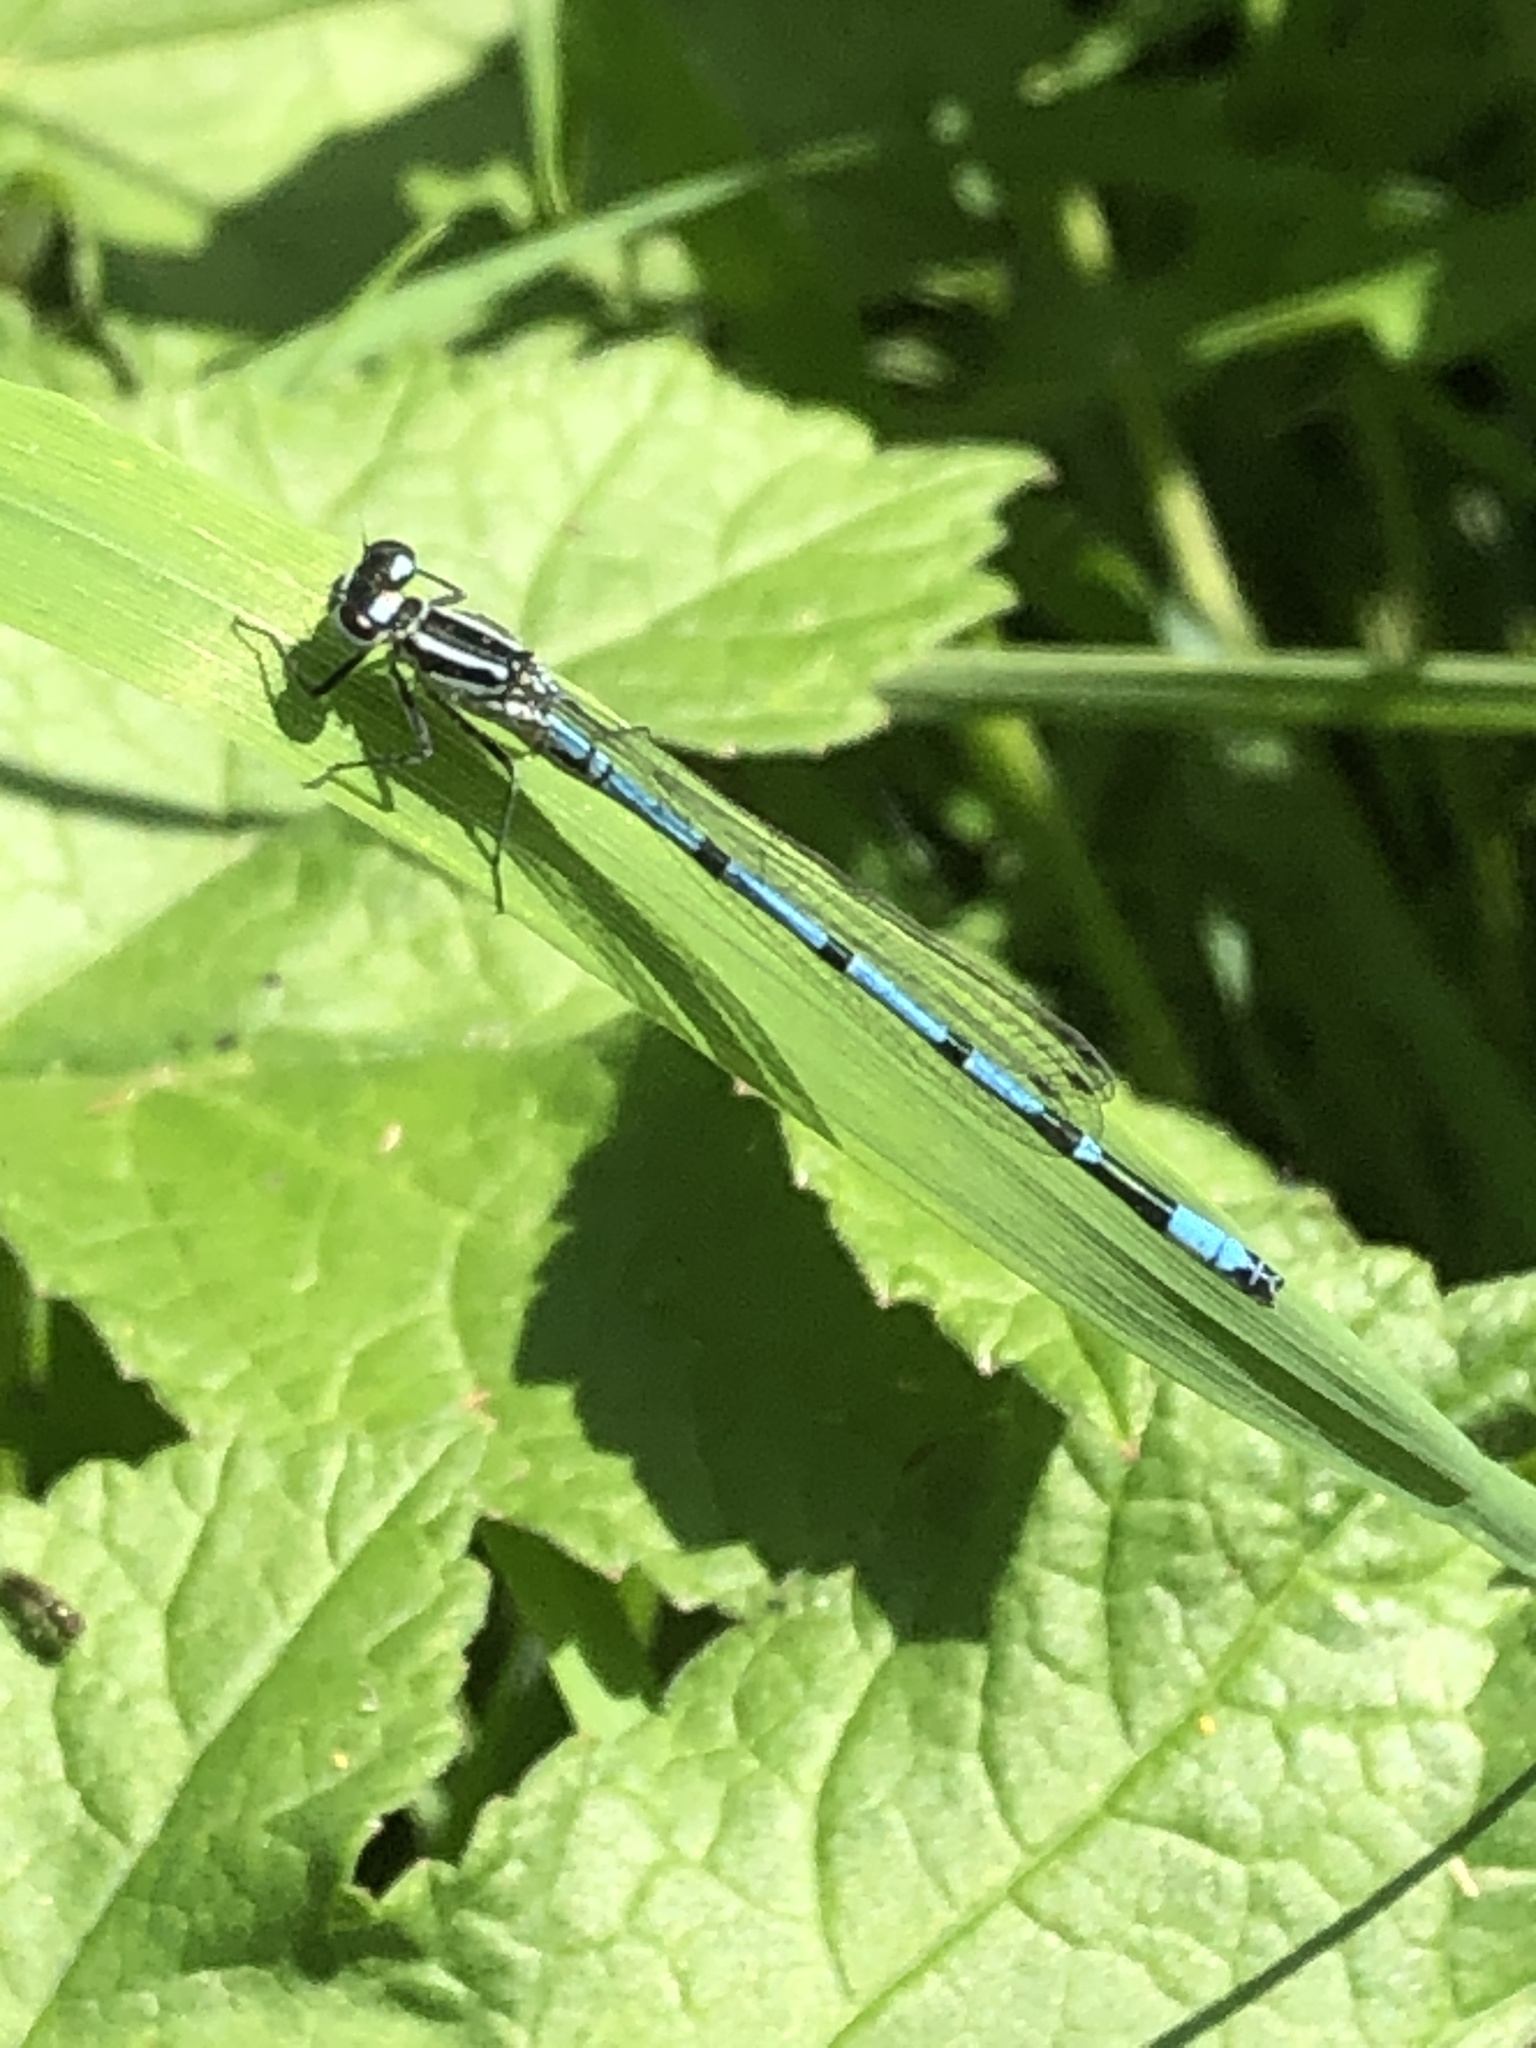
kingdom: Animalia
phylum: Arthropoda
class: Insecta
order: Odonata
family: Coenagrionidae
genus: Coenagrion
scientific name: Coenagrion puella
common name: Azure damselfly
